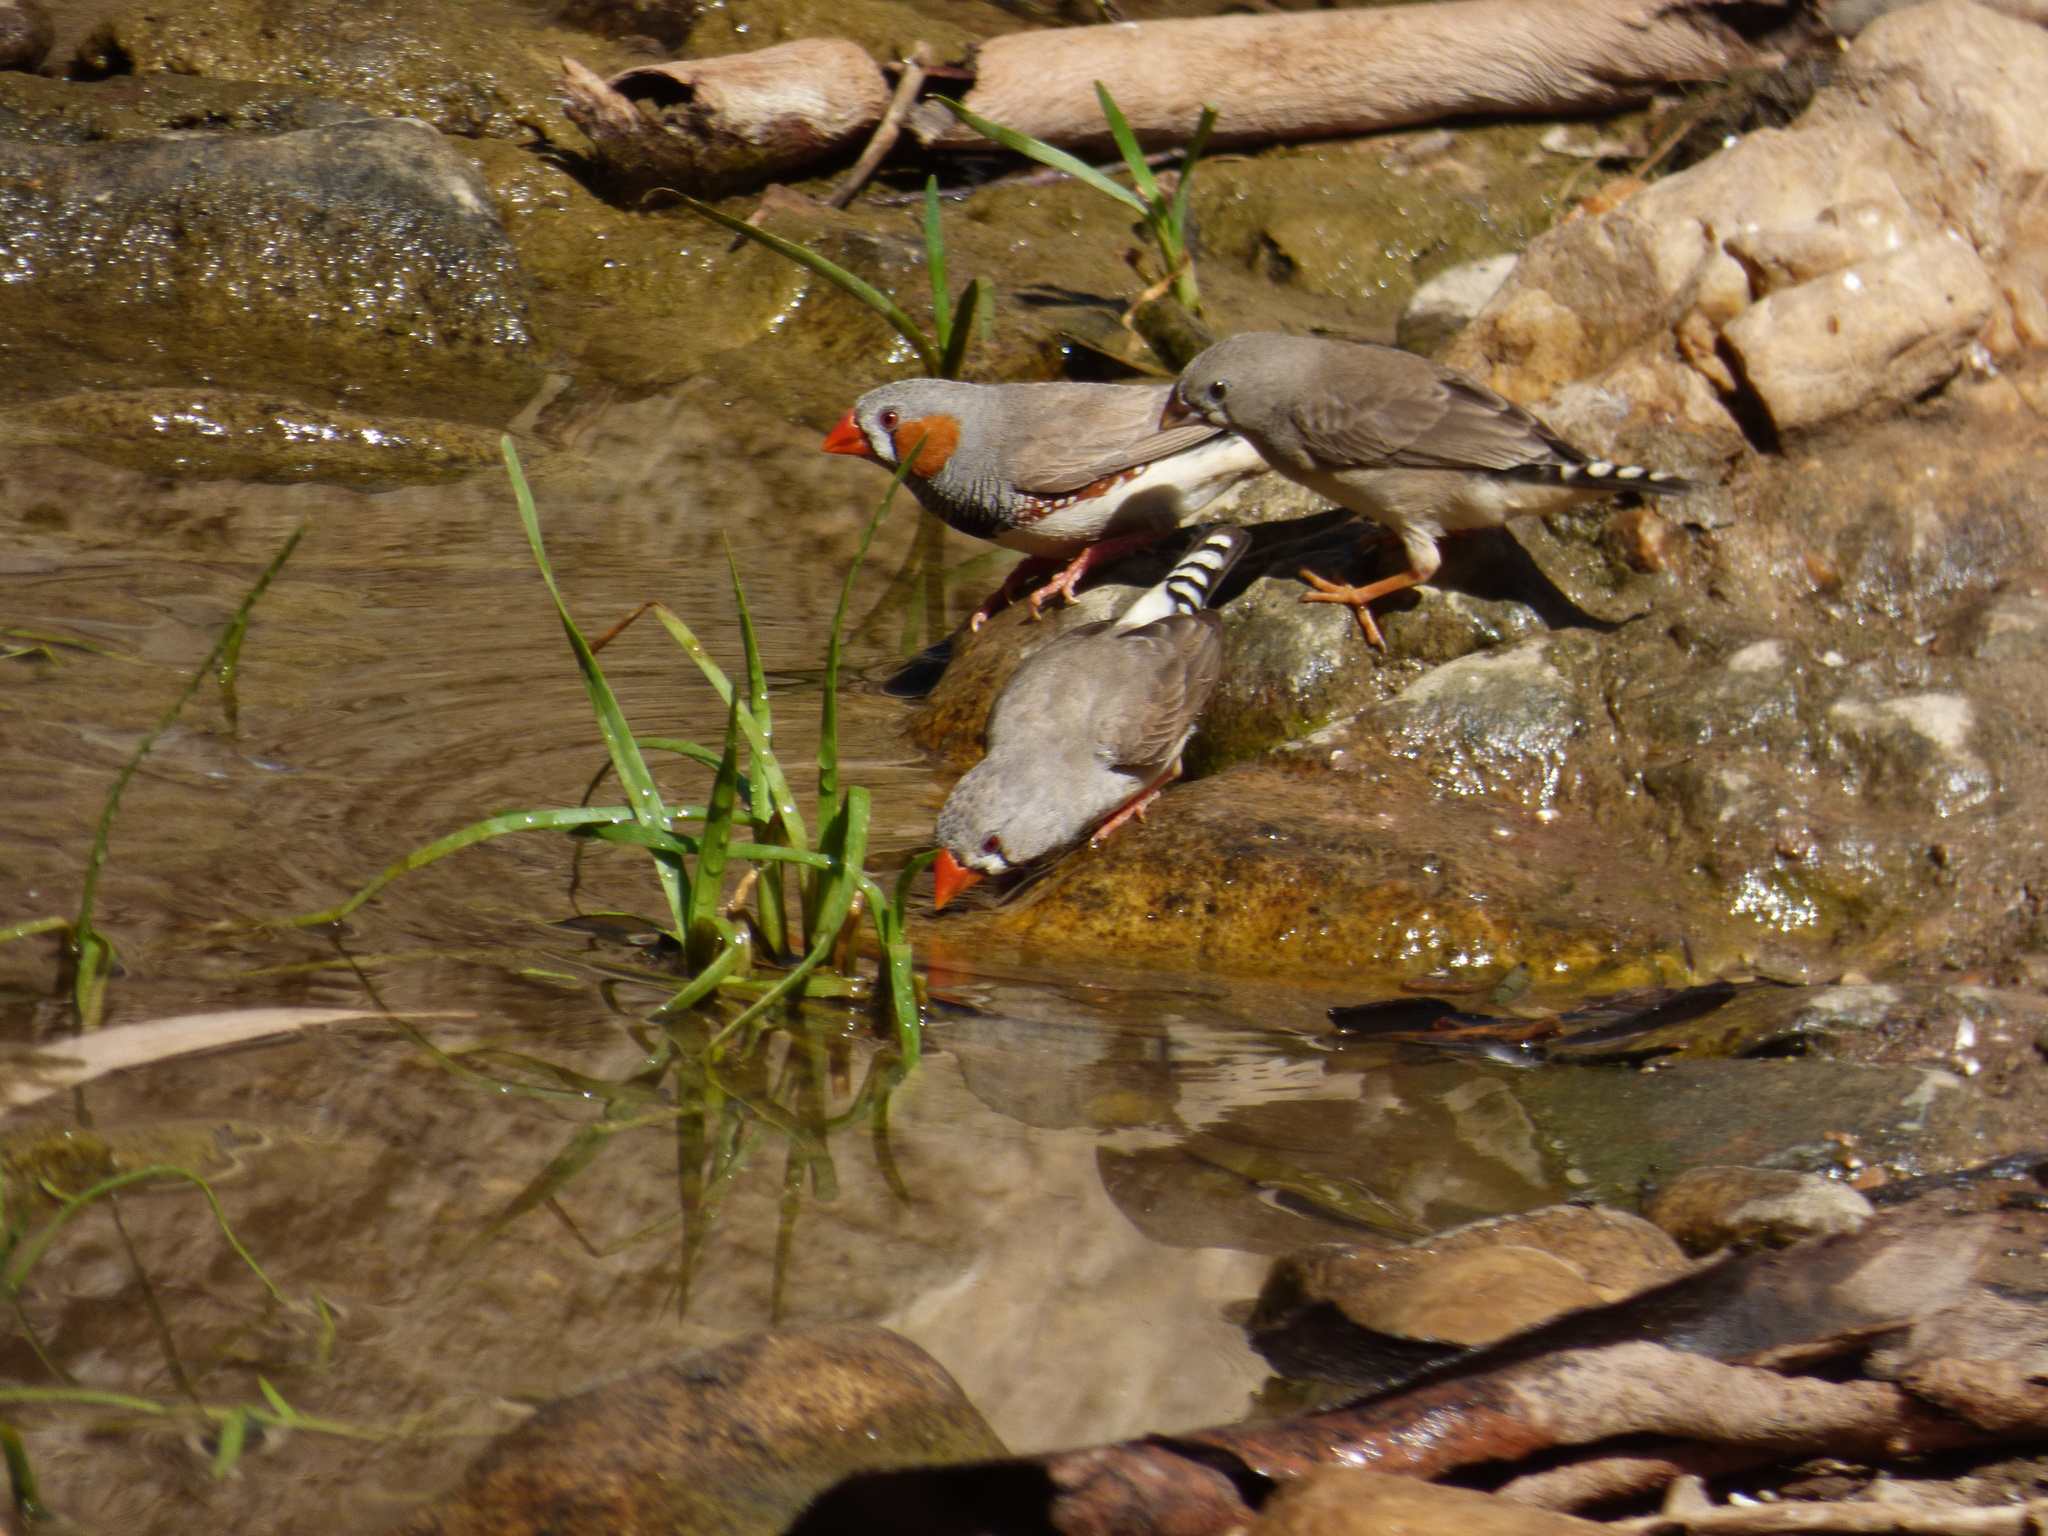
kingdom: Animalia
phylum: Chordata
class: Aves
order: Passeriformes
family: Estrildidae
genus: Taeniopygia
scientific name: Taeniopygia guttata
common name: Zebra finch
